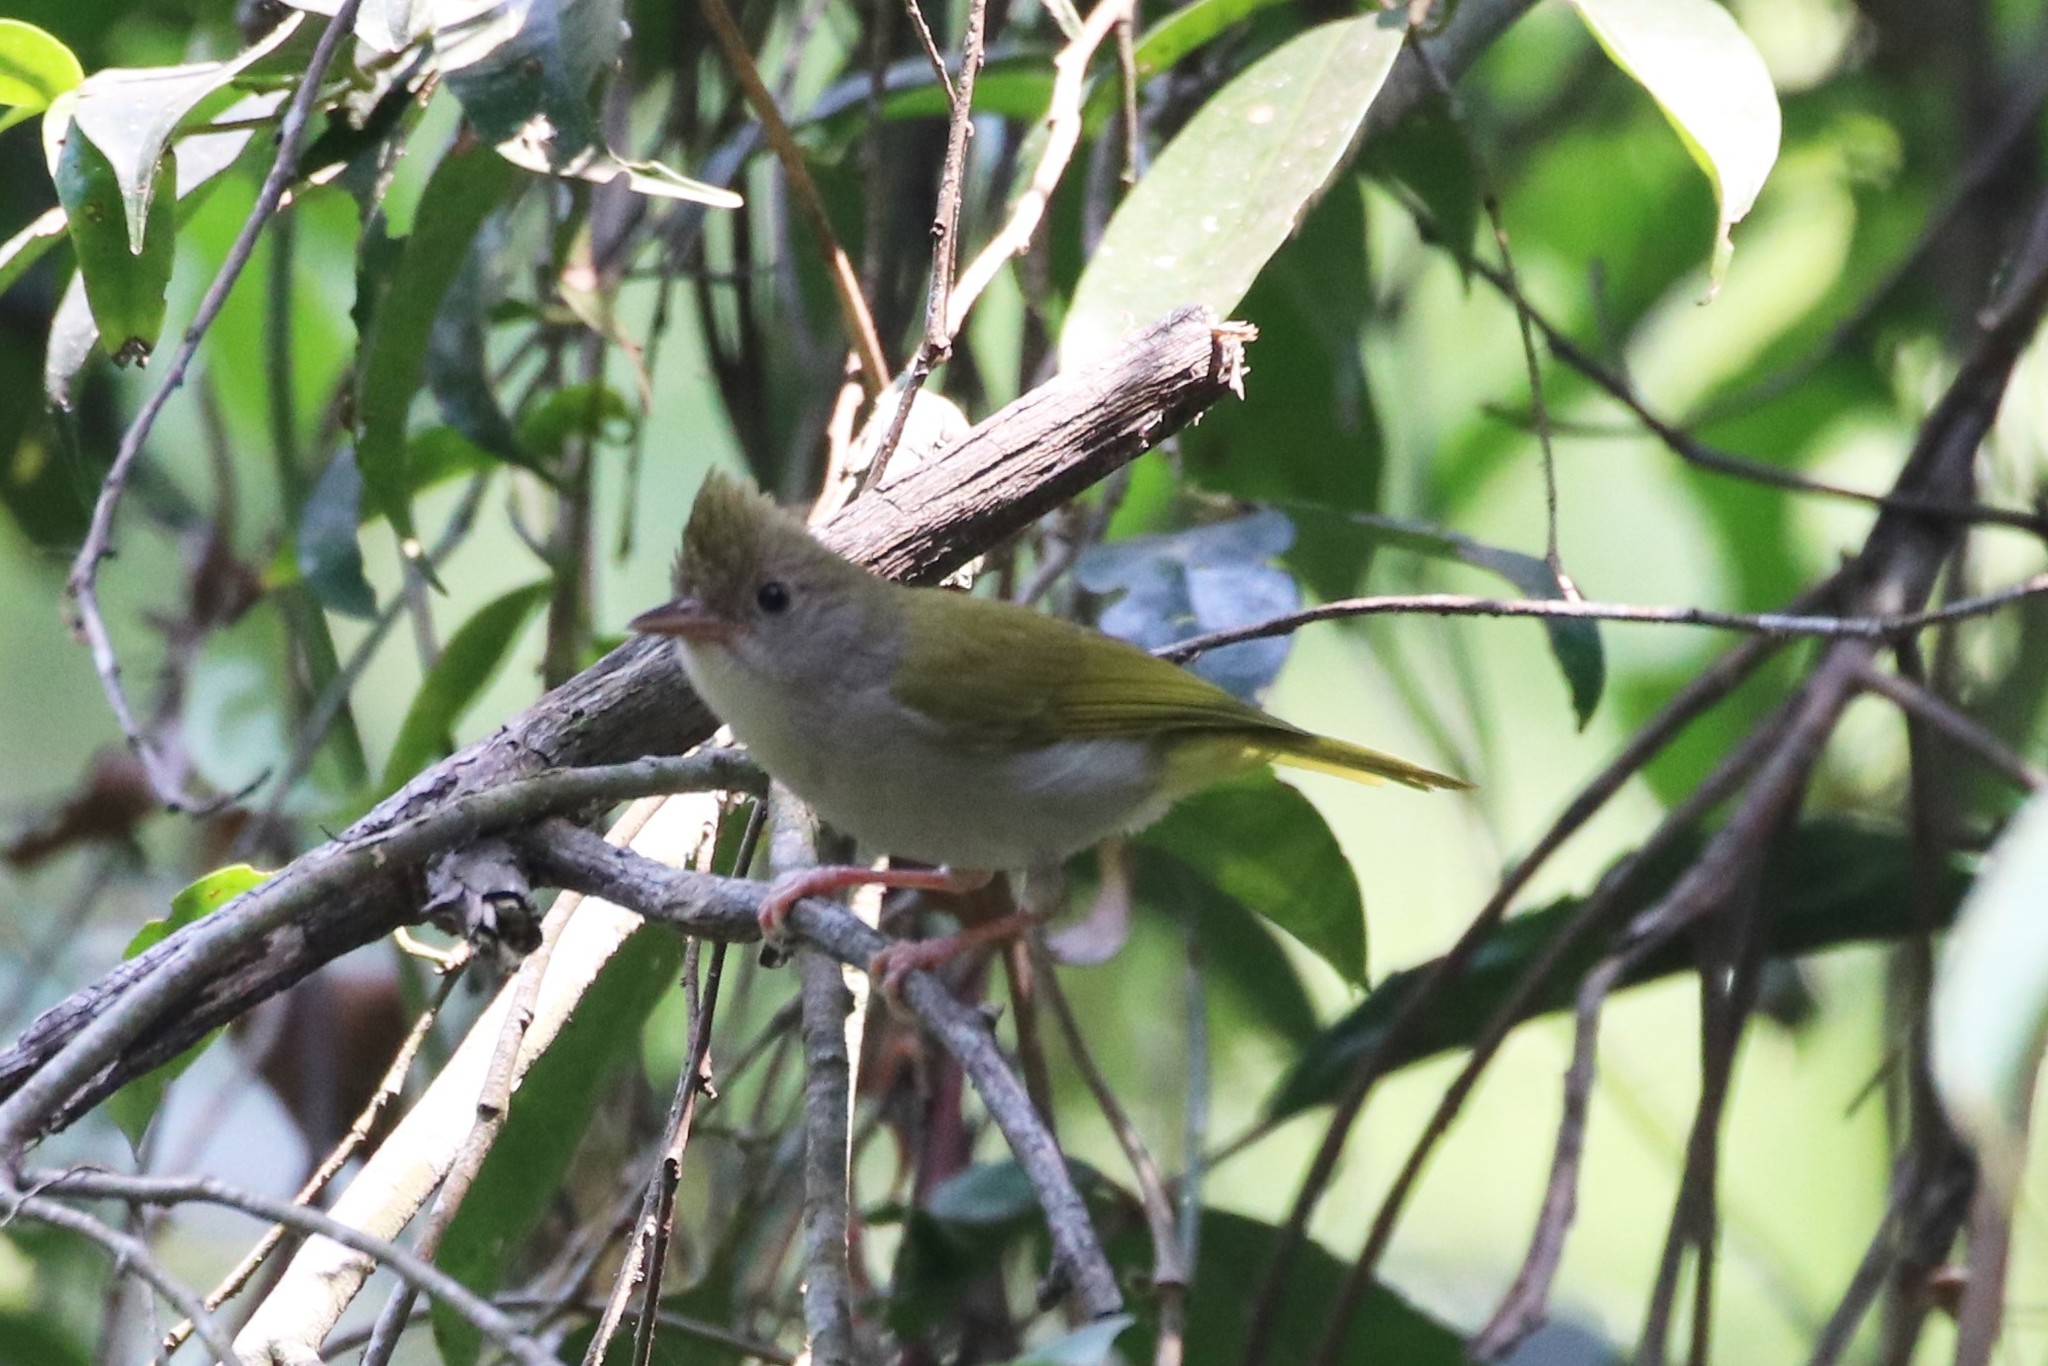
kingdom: Animalia
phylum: Chordata
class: Aves
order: Passeriformes
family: Vireonidae
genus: Erpornis
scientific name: Erpornis zantholeuca
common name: White-bellied erpornis
